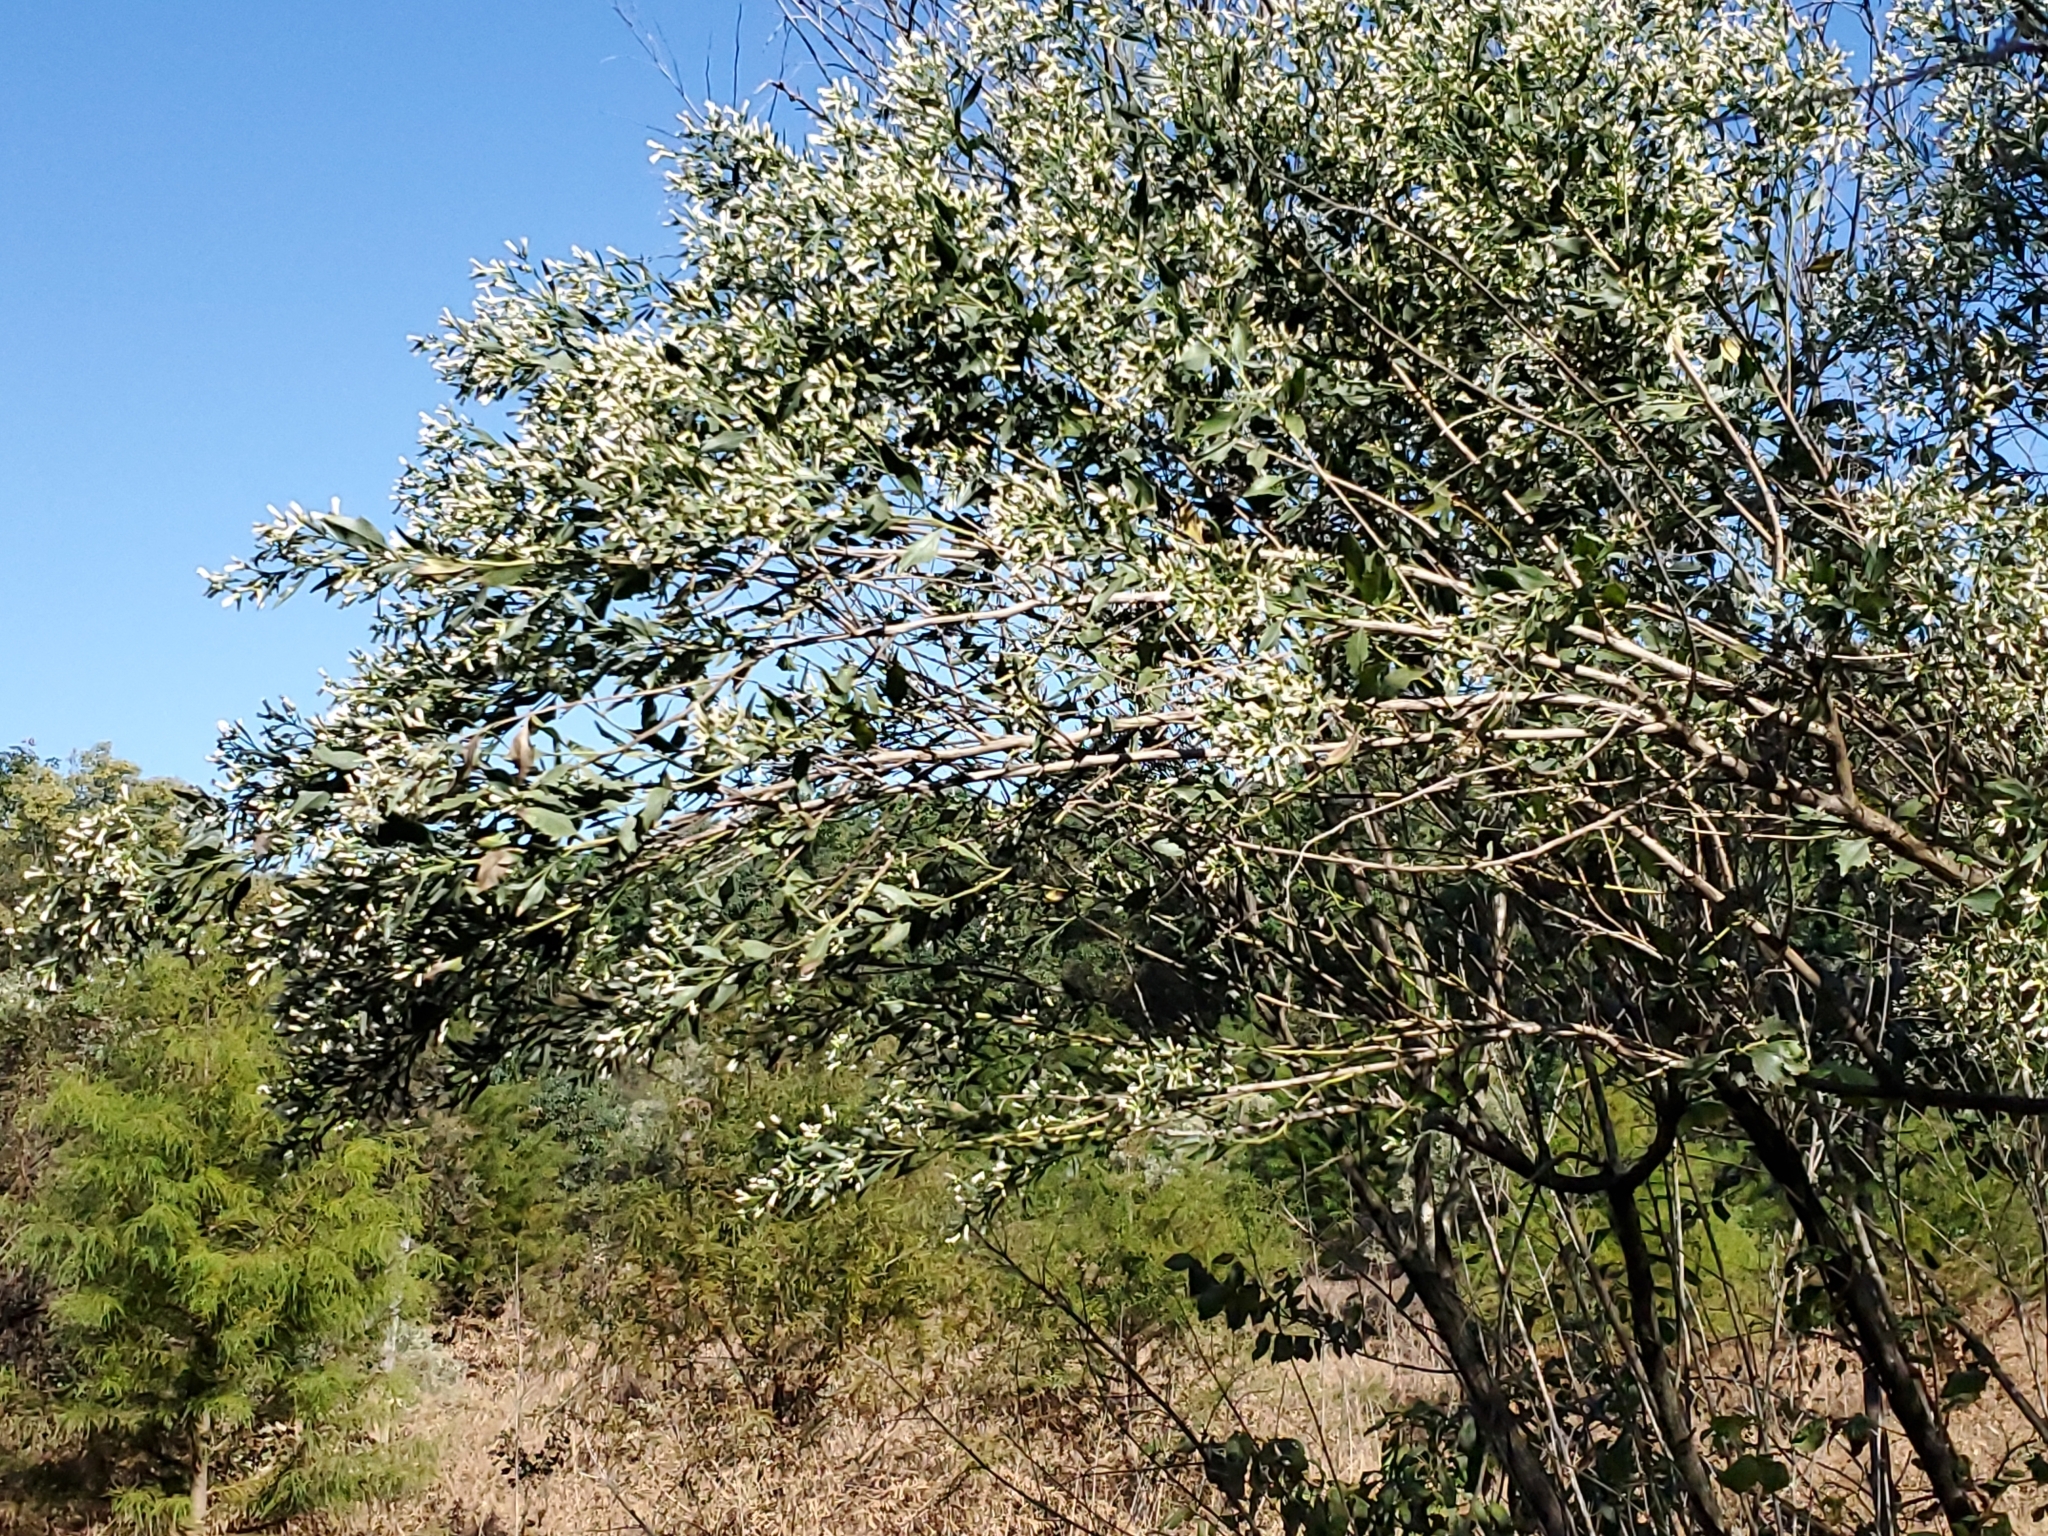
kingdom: Plantae
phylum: Tracheophyta
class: Magnoliopsida
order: Asterales
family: Asteraceae
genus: Baccharis
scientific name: Baccharis halimifolia
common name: Eastern baccharis
